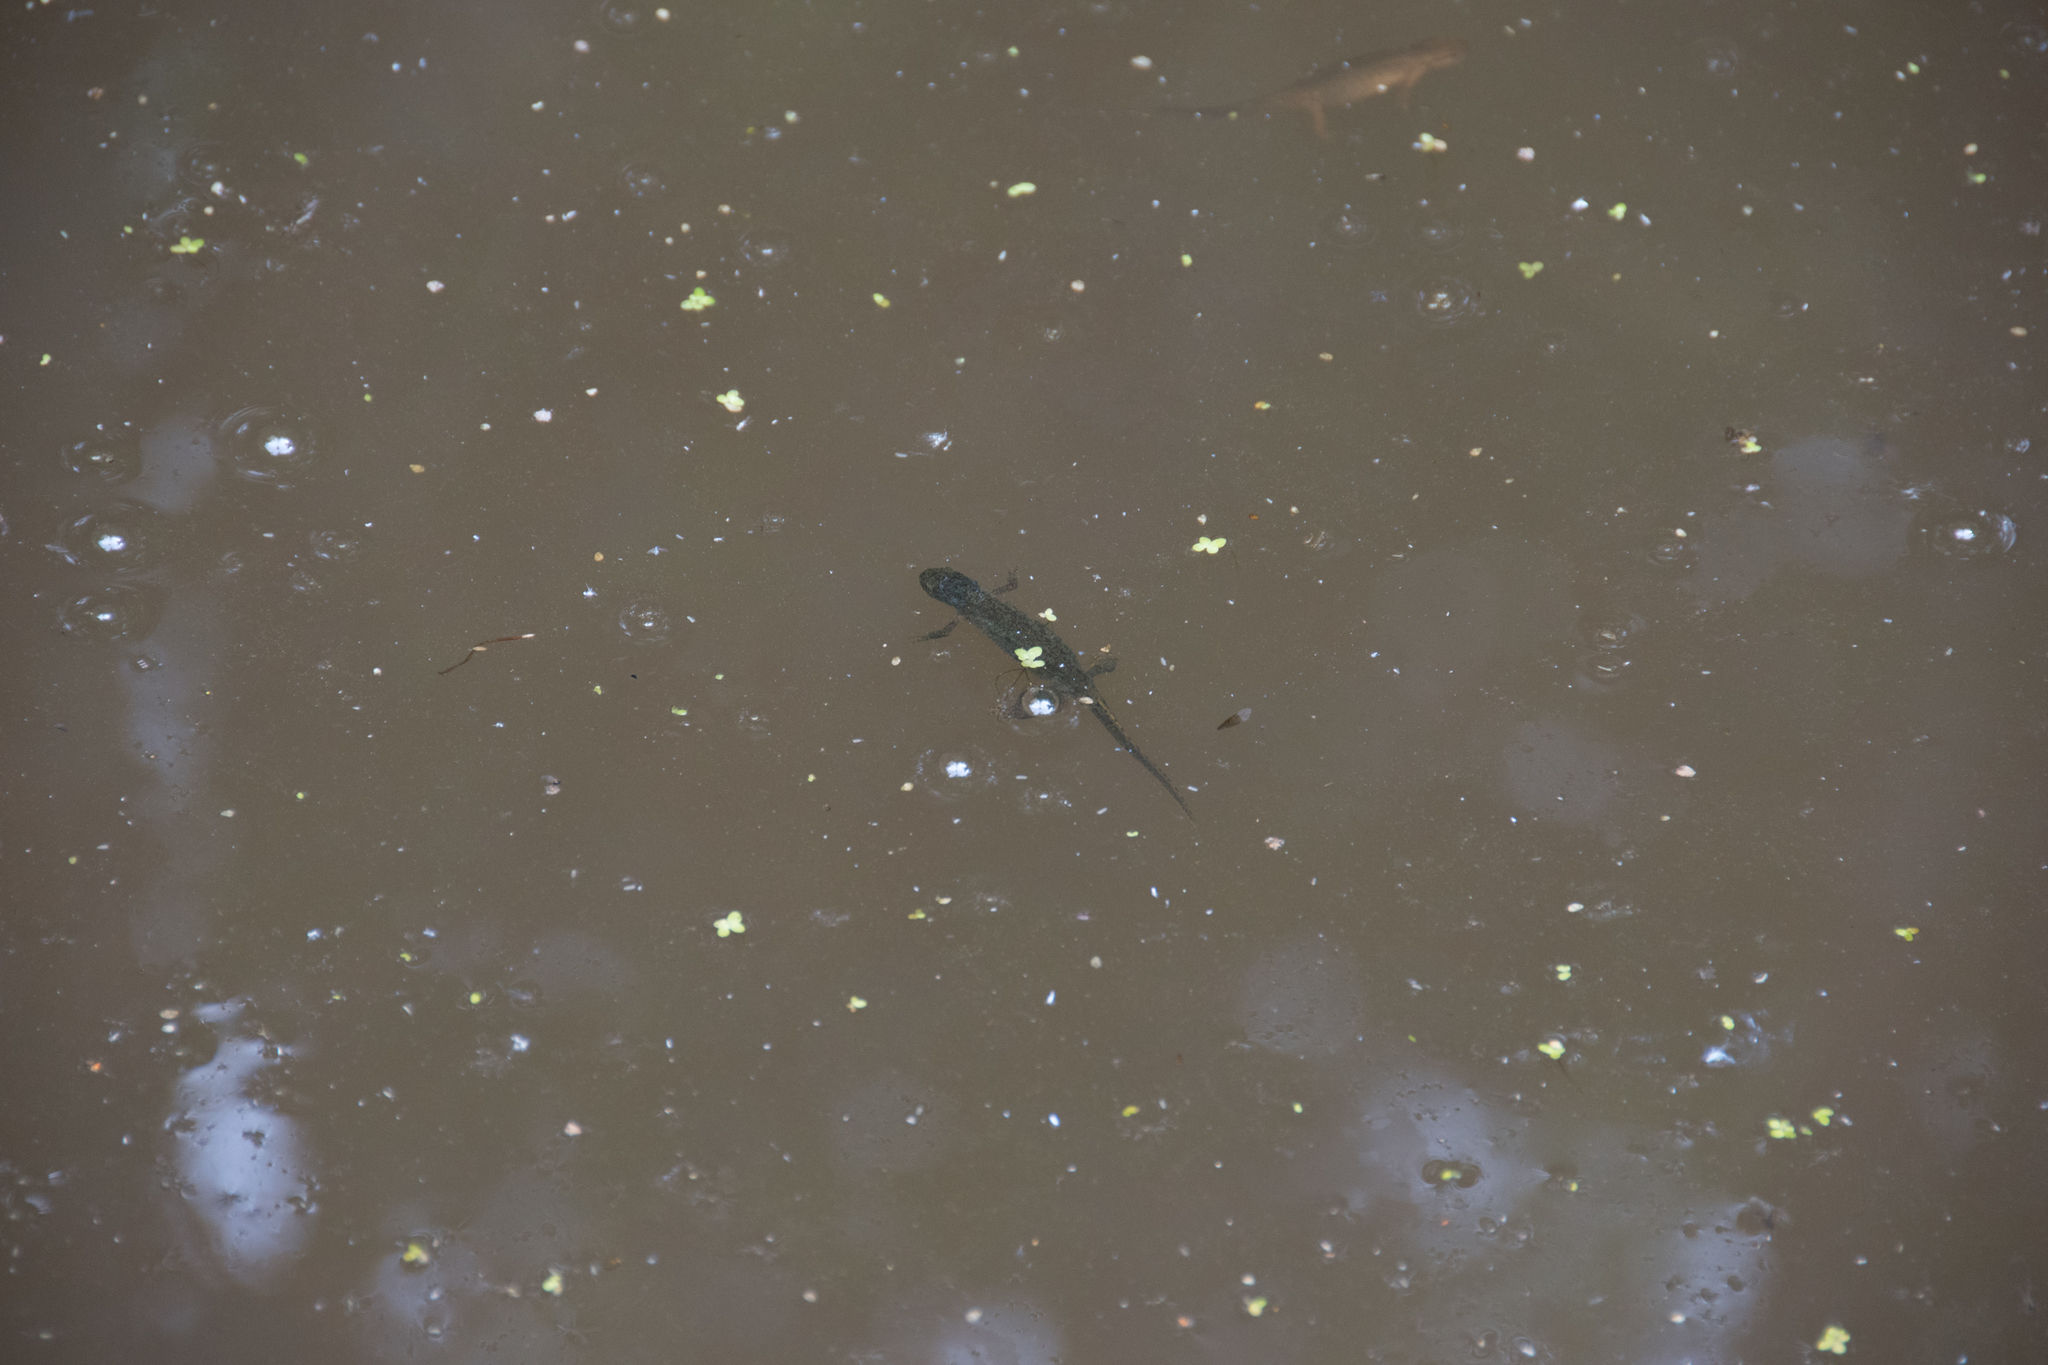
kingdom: Animalia
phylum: Chordata
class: Amphibia
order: Caudata
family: Salamandridae
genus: Ichthyosaura
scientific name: Ichthyosaura alpestris
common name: Alpine newt
